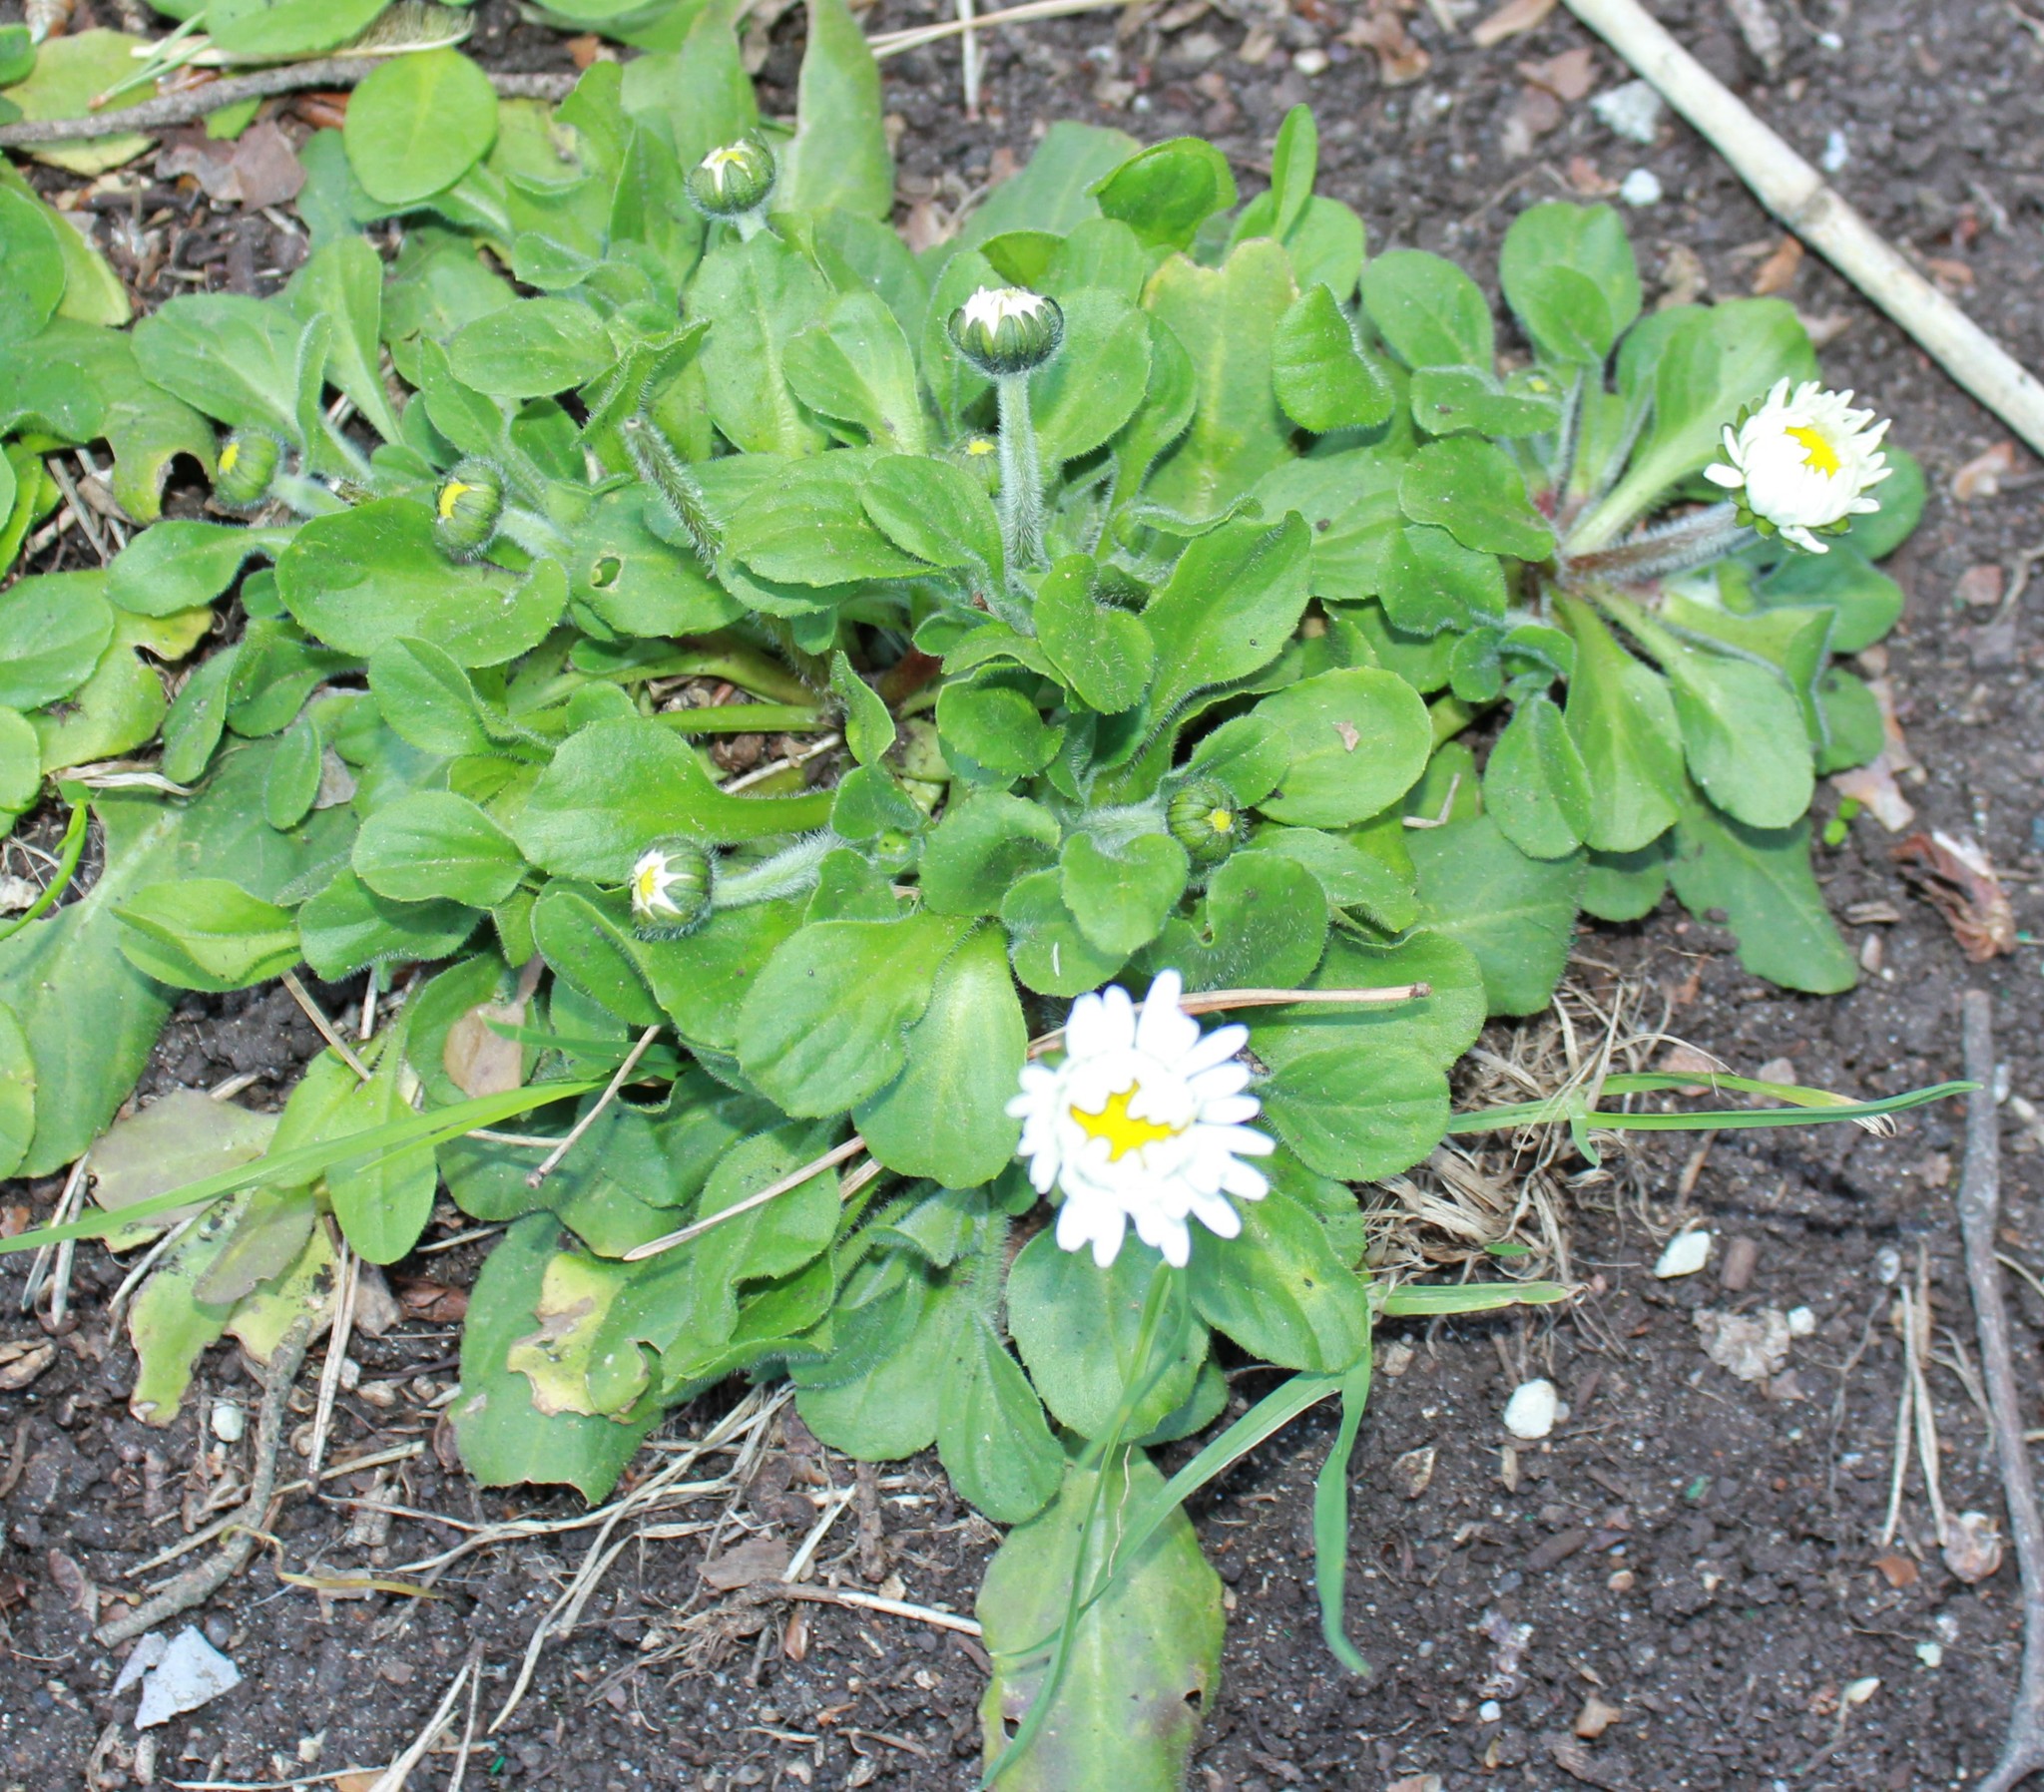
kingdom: Plantae
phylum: Tracheophyta
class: Magnoliopsida
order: Asterales
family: Asteraceae
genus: Bellis
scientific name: Bellis perennis
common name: Lawndaisy
